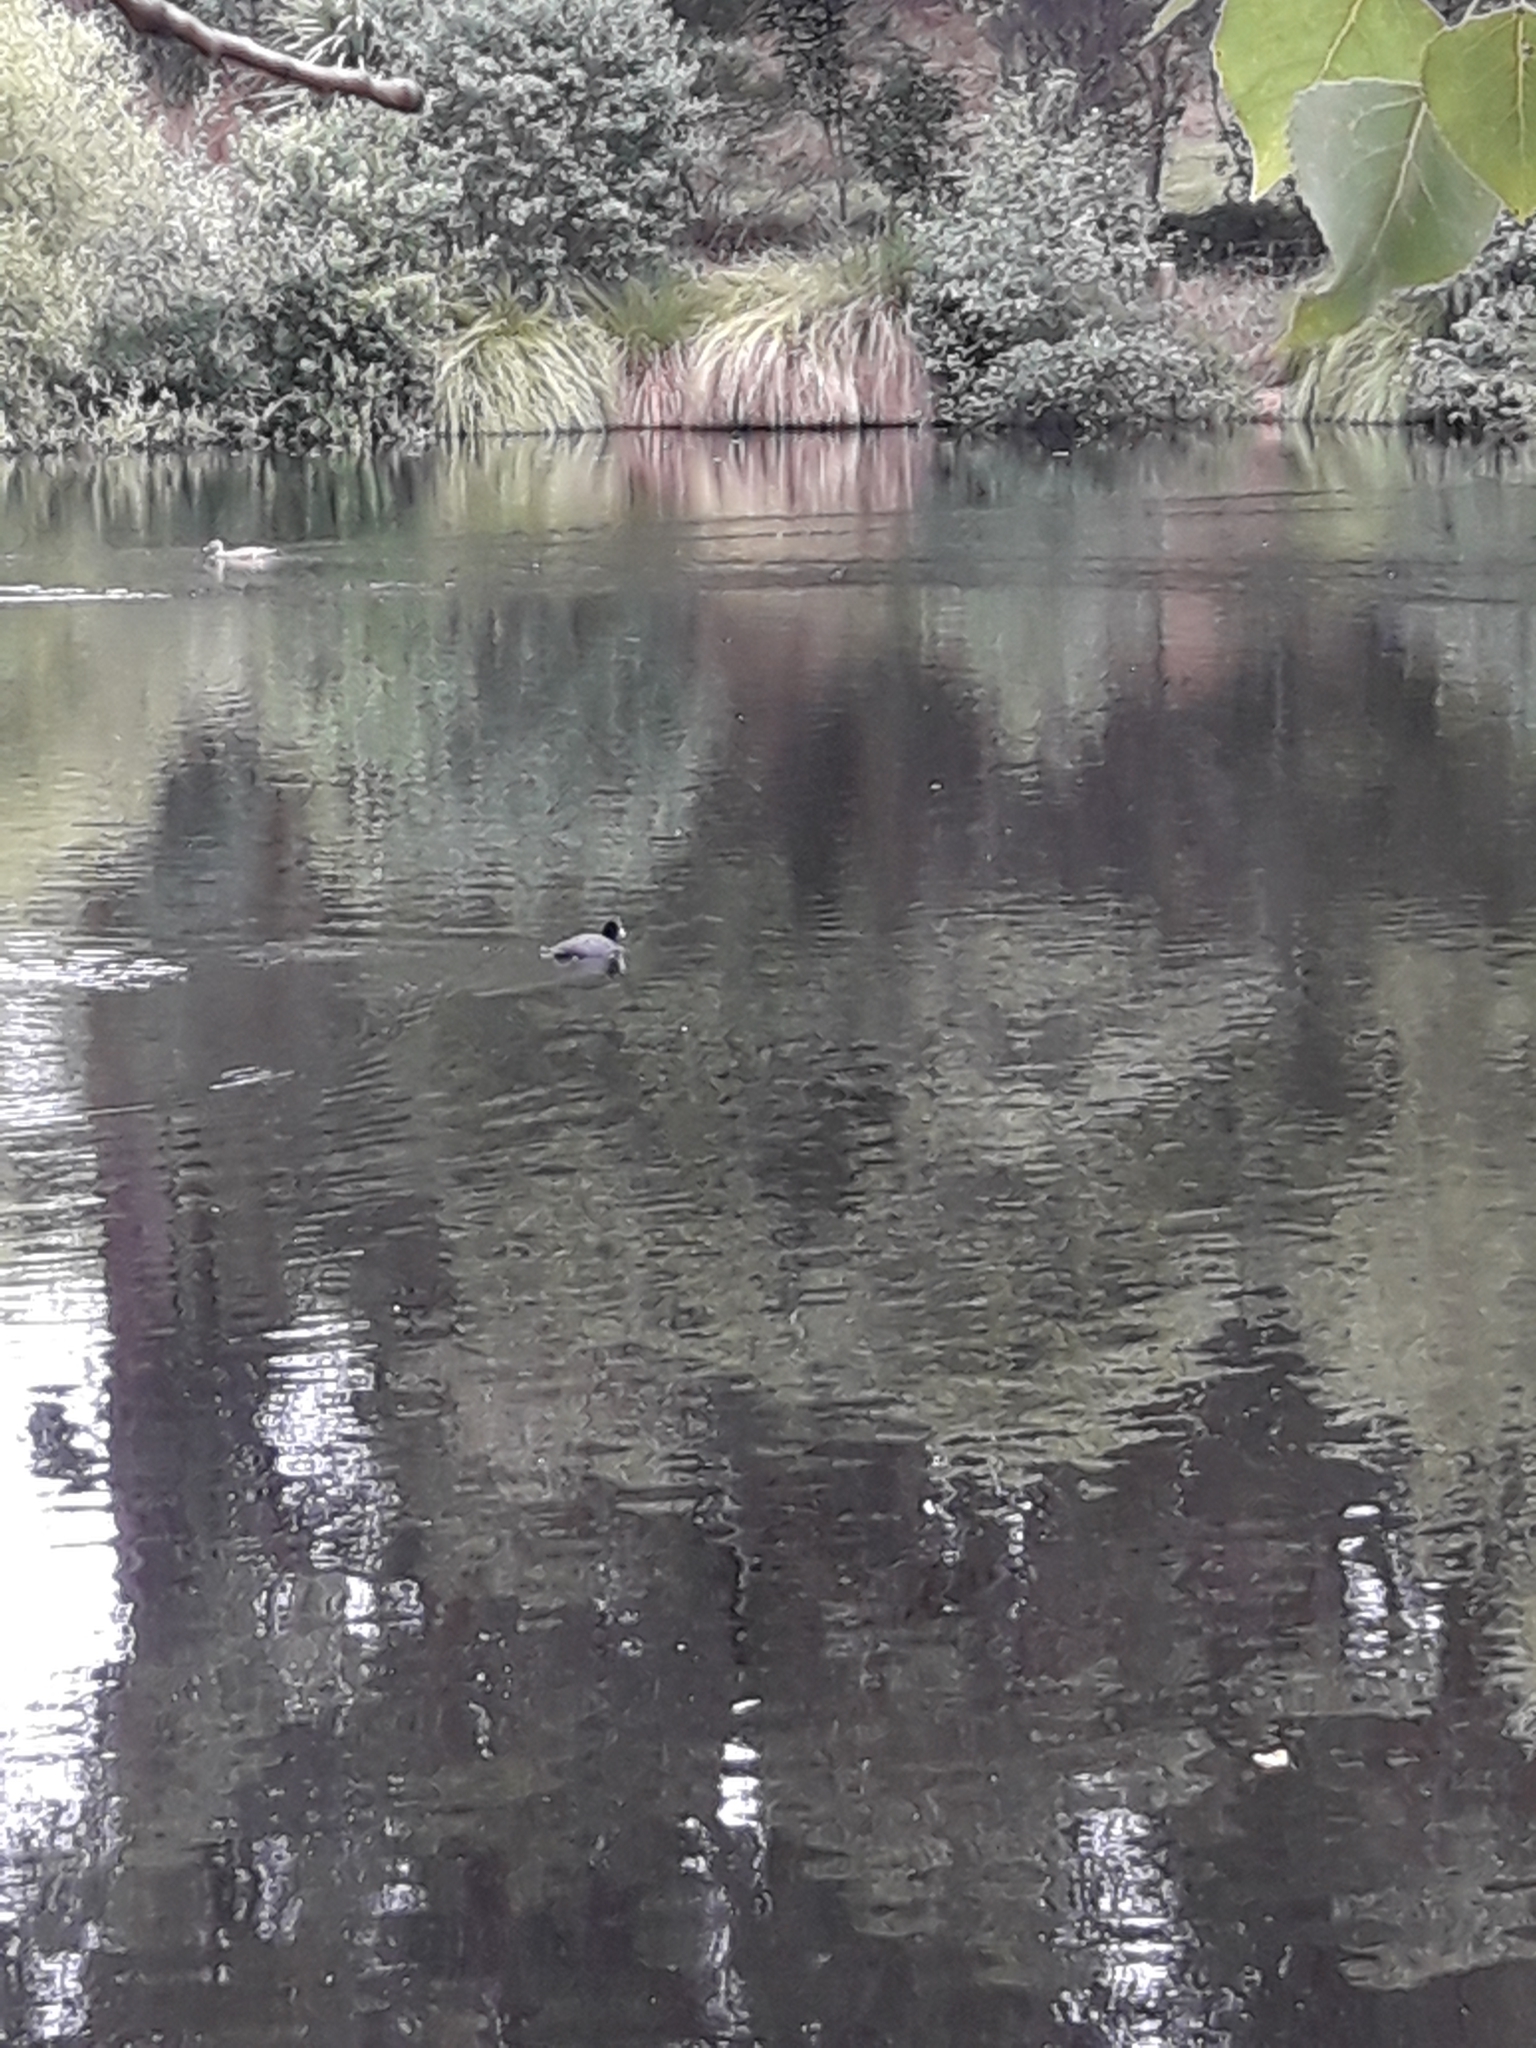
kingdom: Animalia
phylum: Chordata
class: Aves
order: Gruiformes
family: Rallidae
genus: Fulica
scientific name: Fulica atra
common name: Eurasian coot
